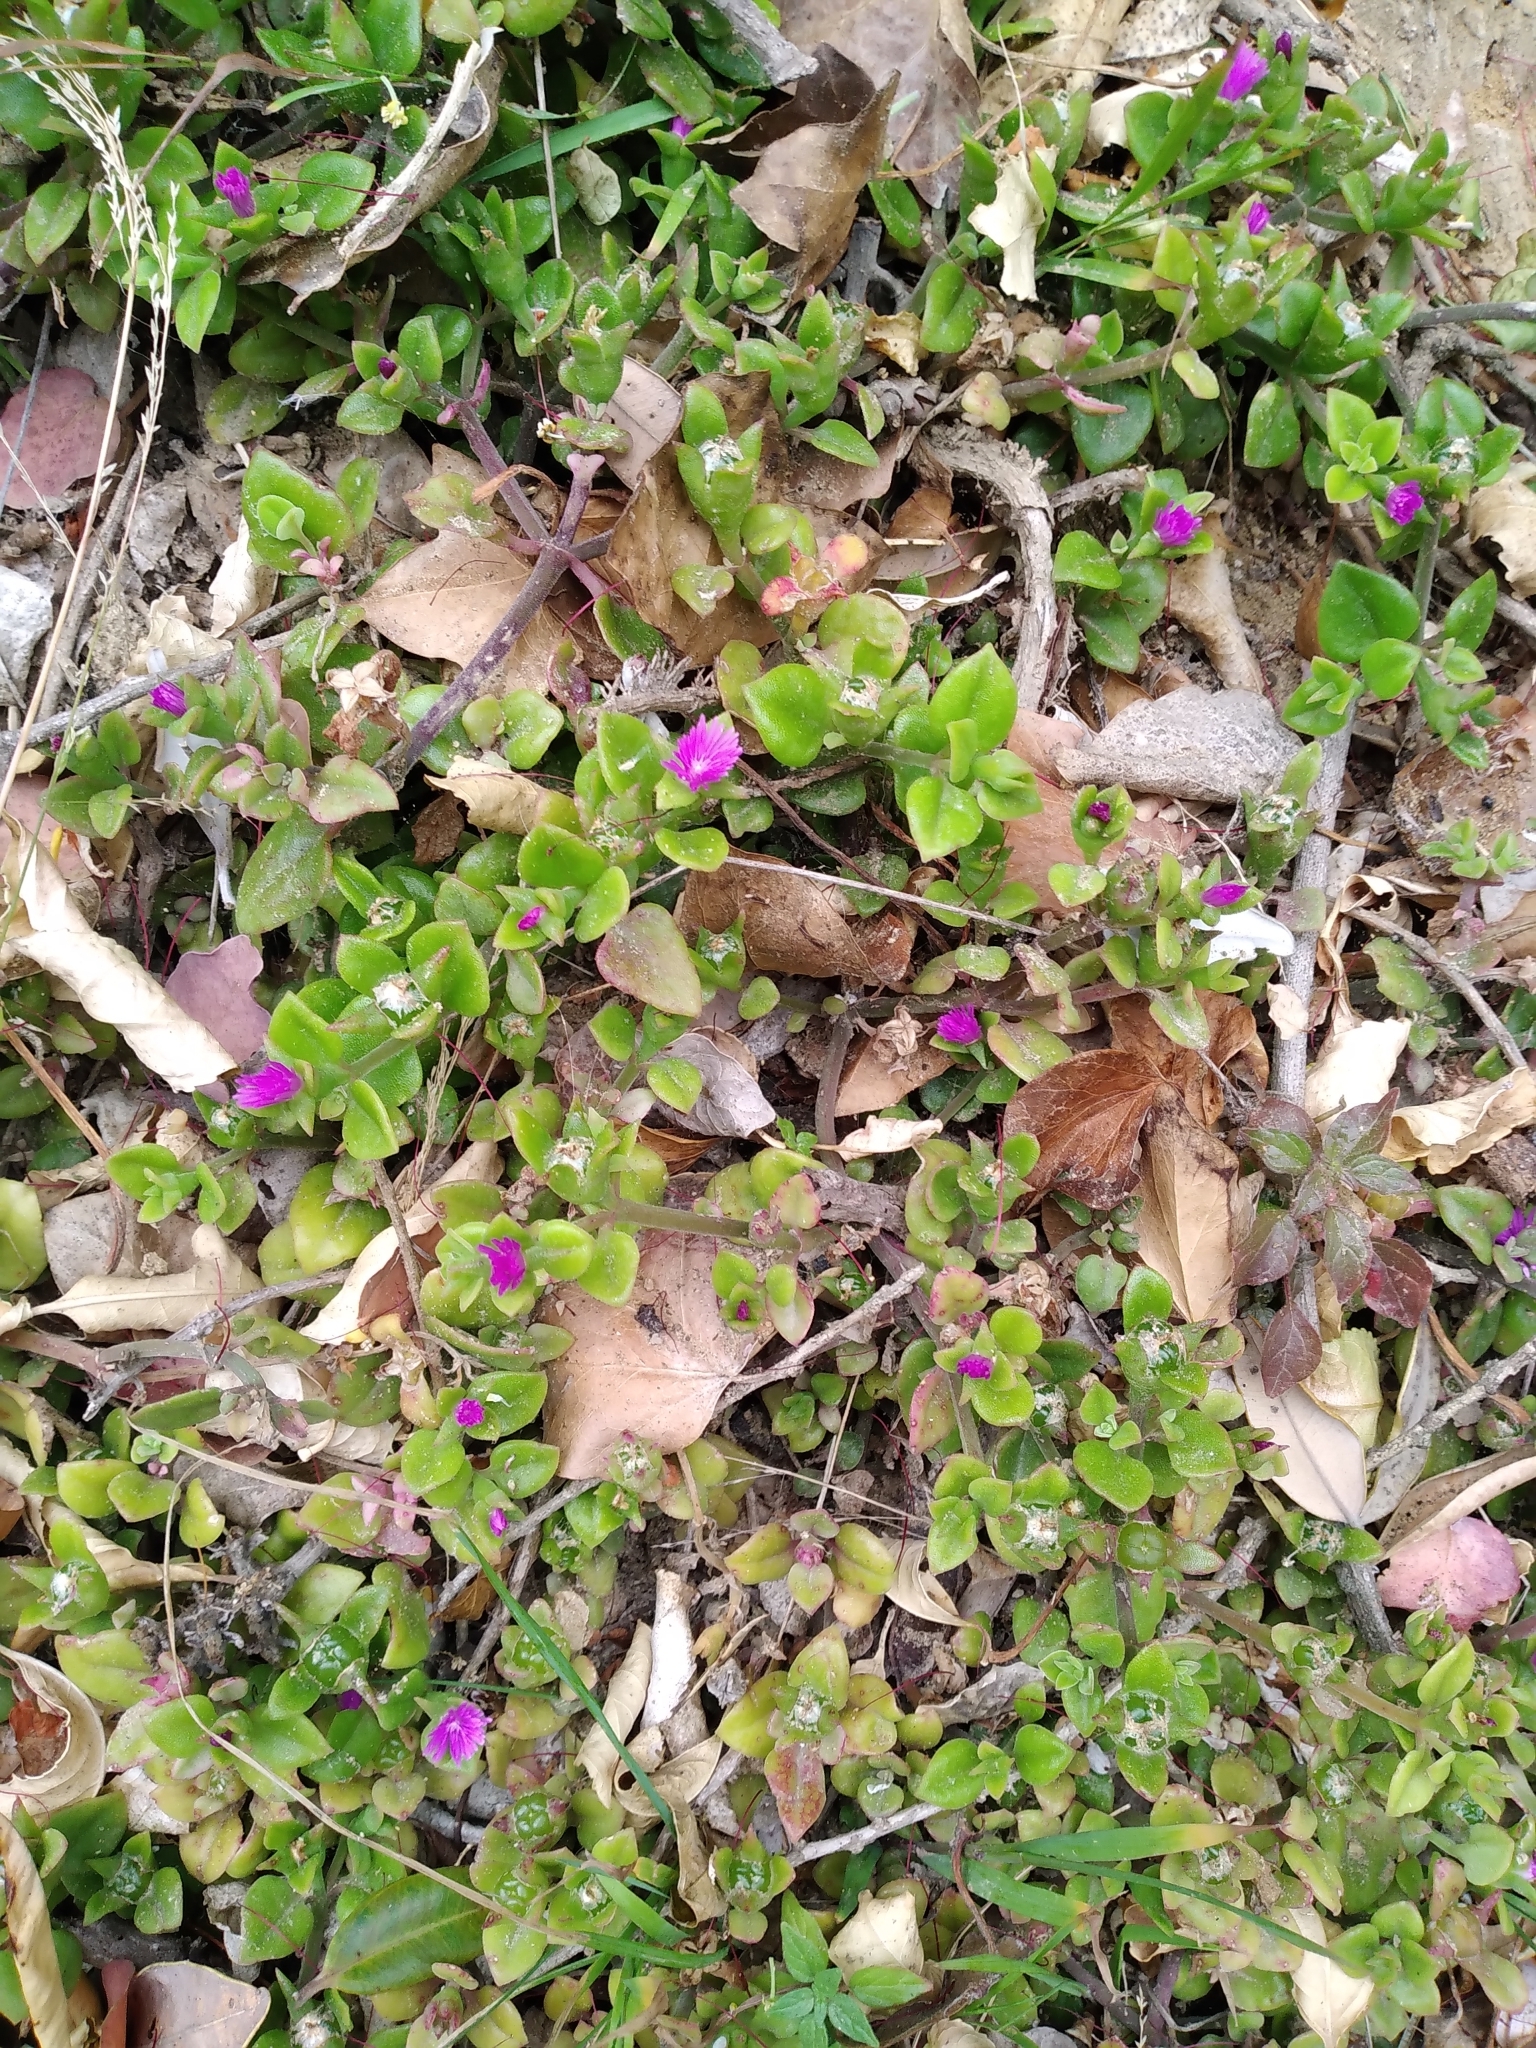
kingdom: Plantae
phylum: Tracheophyta
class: Magnoliopsida
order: Caryophyllales
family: Aizoaceae
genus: Mesembryanthemum
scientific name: Mesembryanthemum cordifolium
